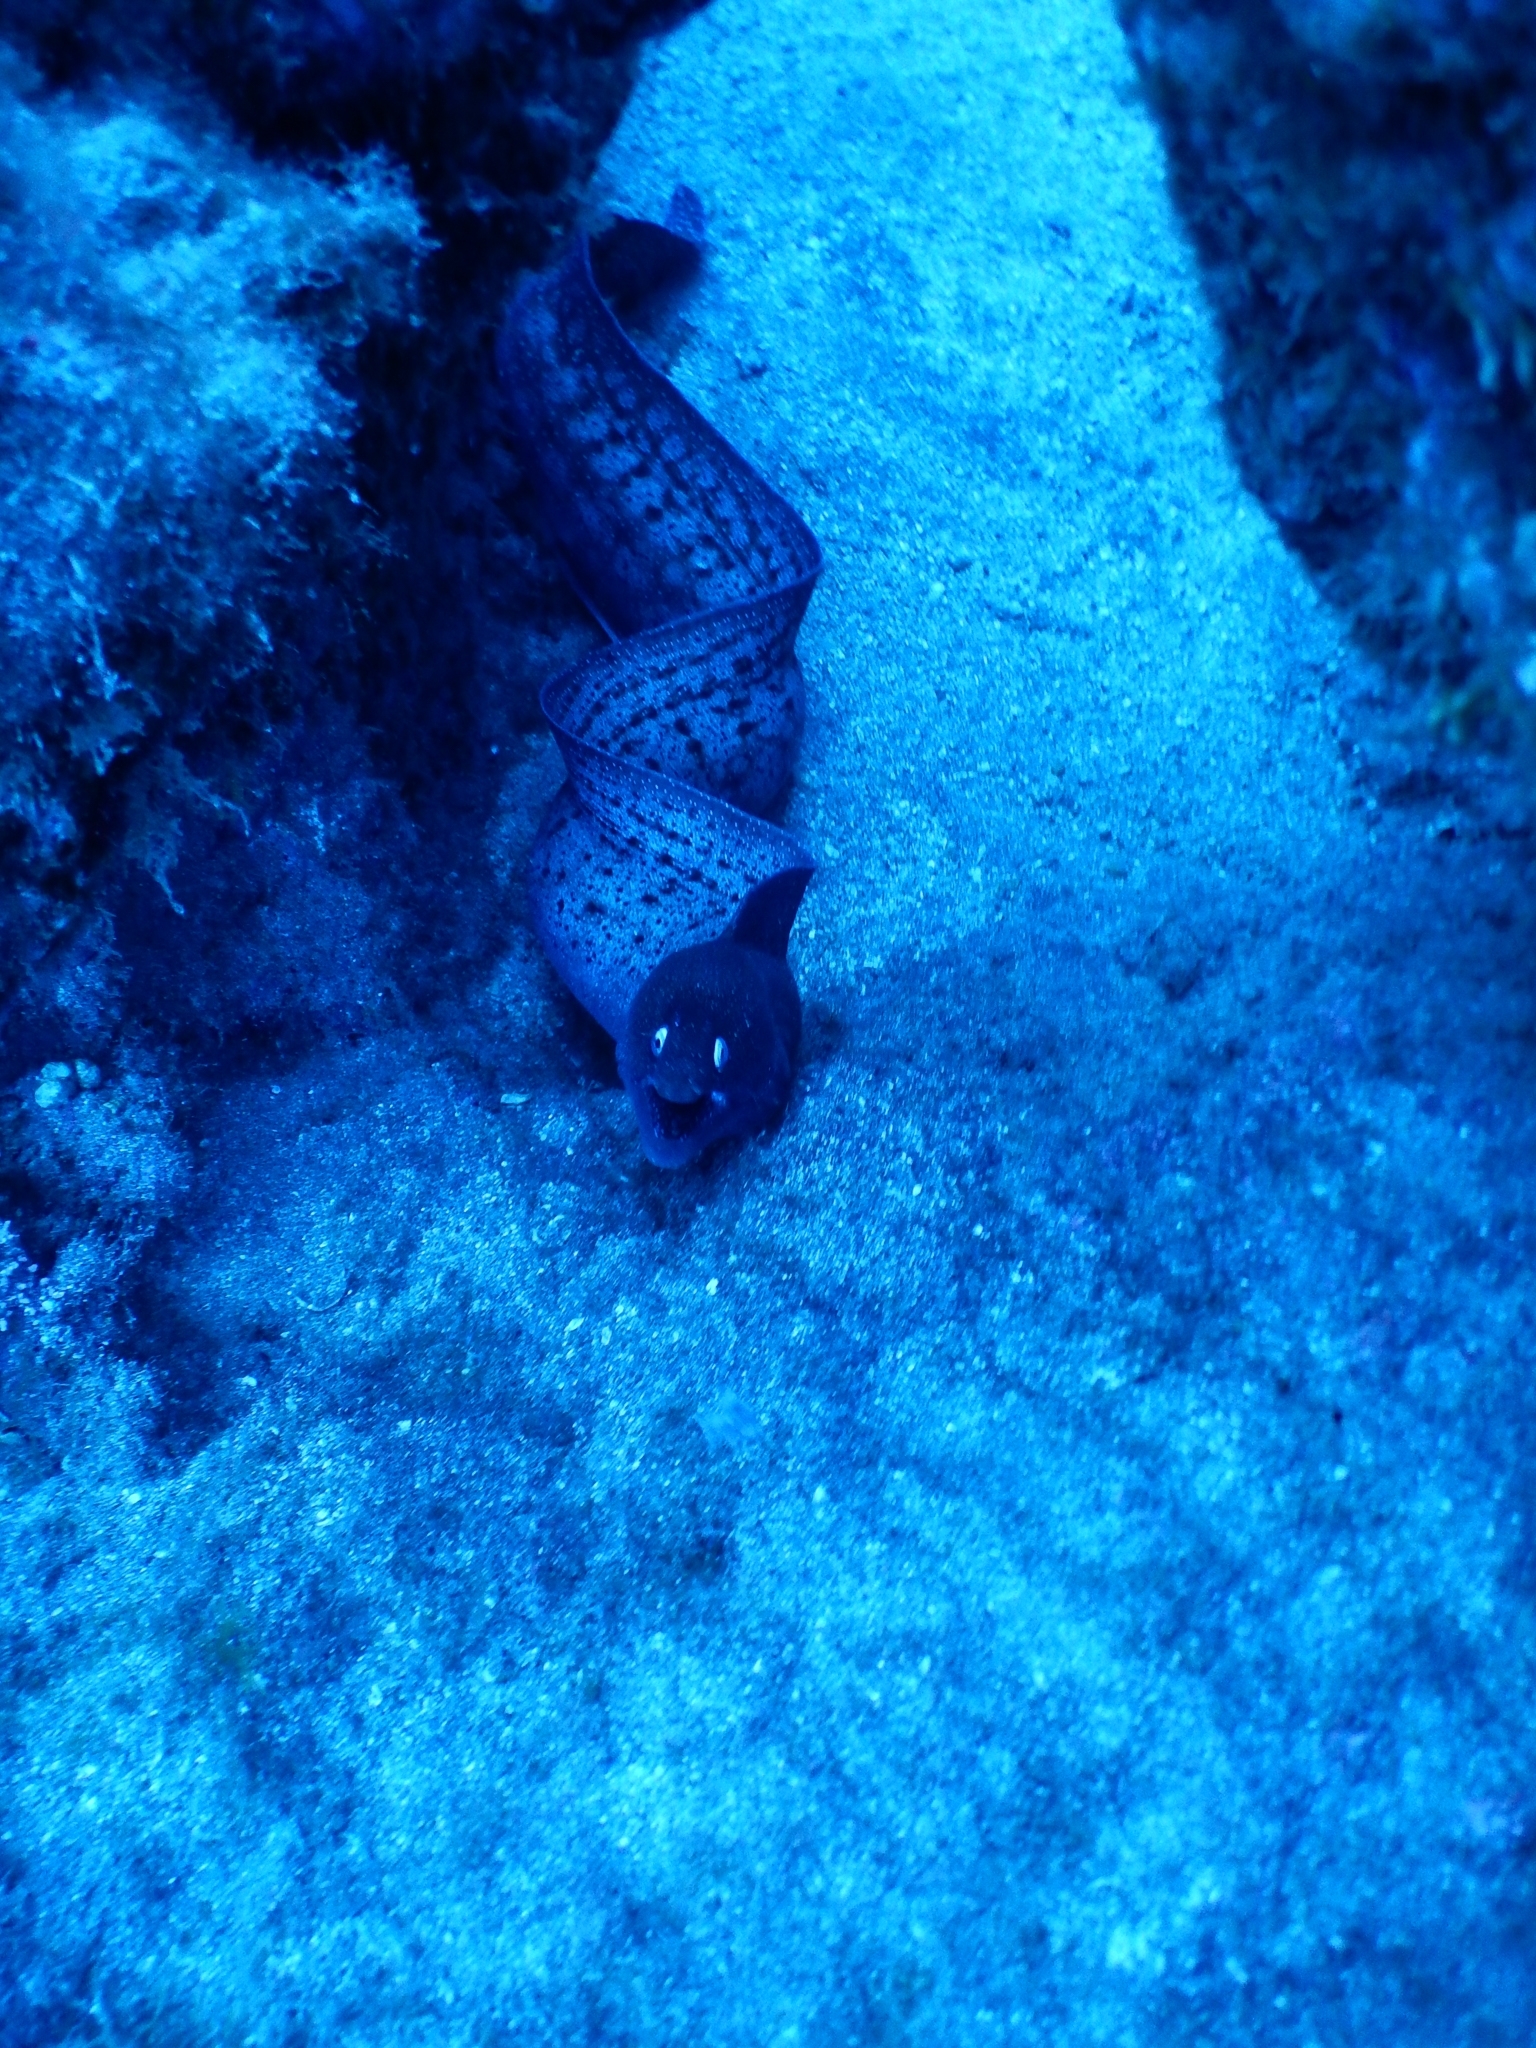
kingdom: Animalia
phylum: Chordata
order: Anguilliformes
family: Muraenidae
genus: Muraena
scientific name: Muraena augusti
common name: Mediterranean moray
